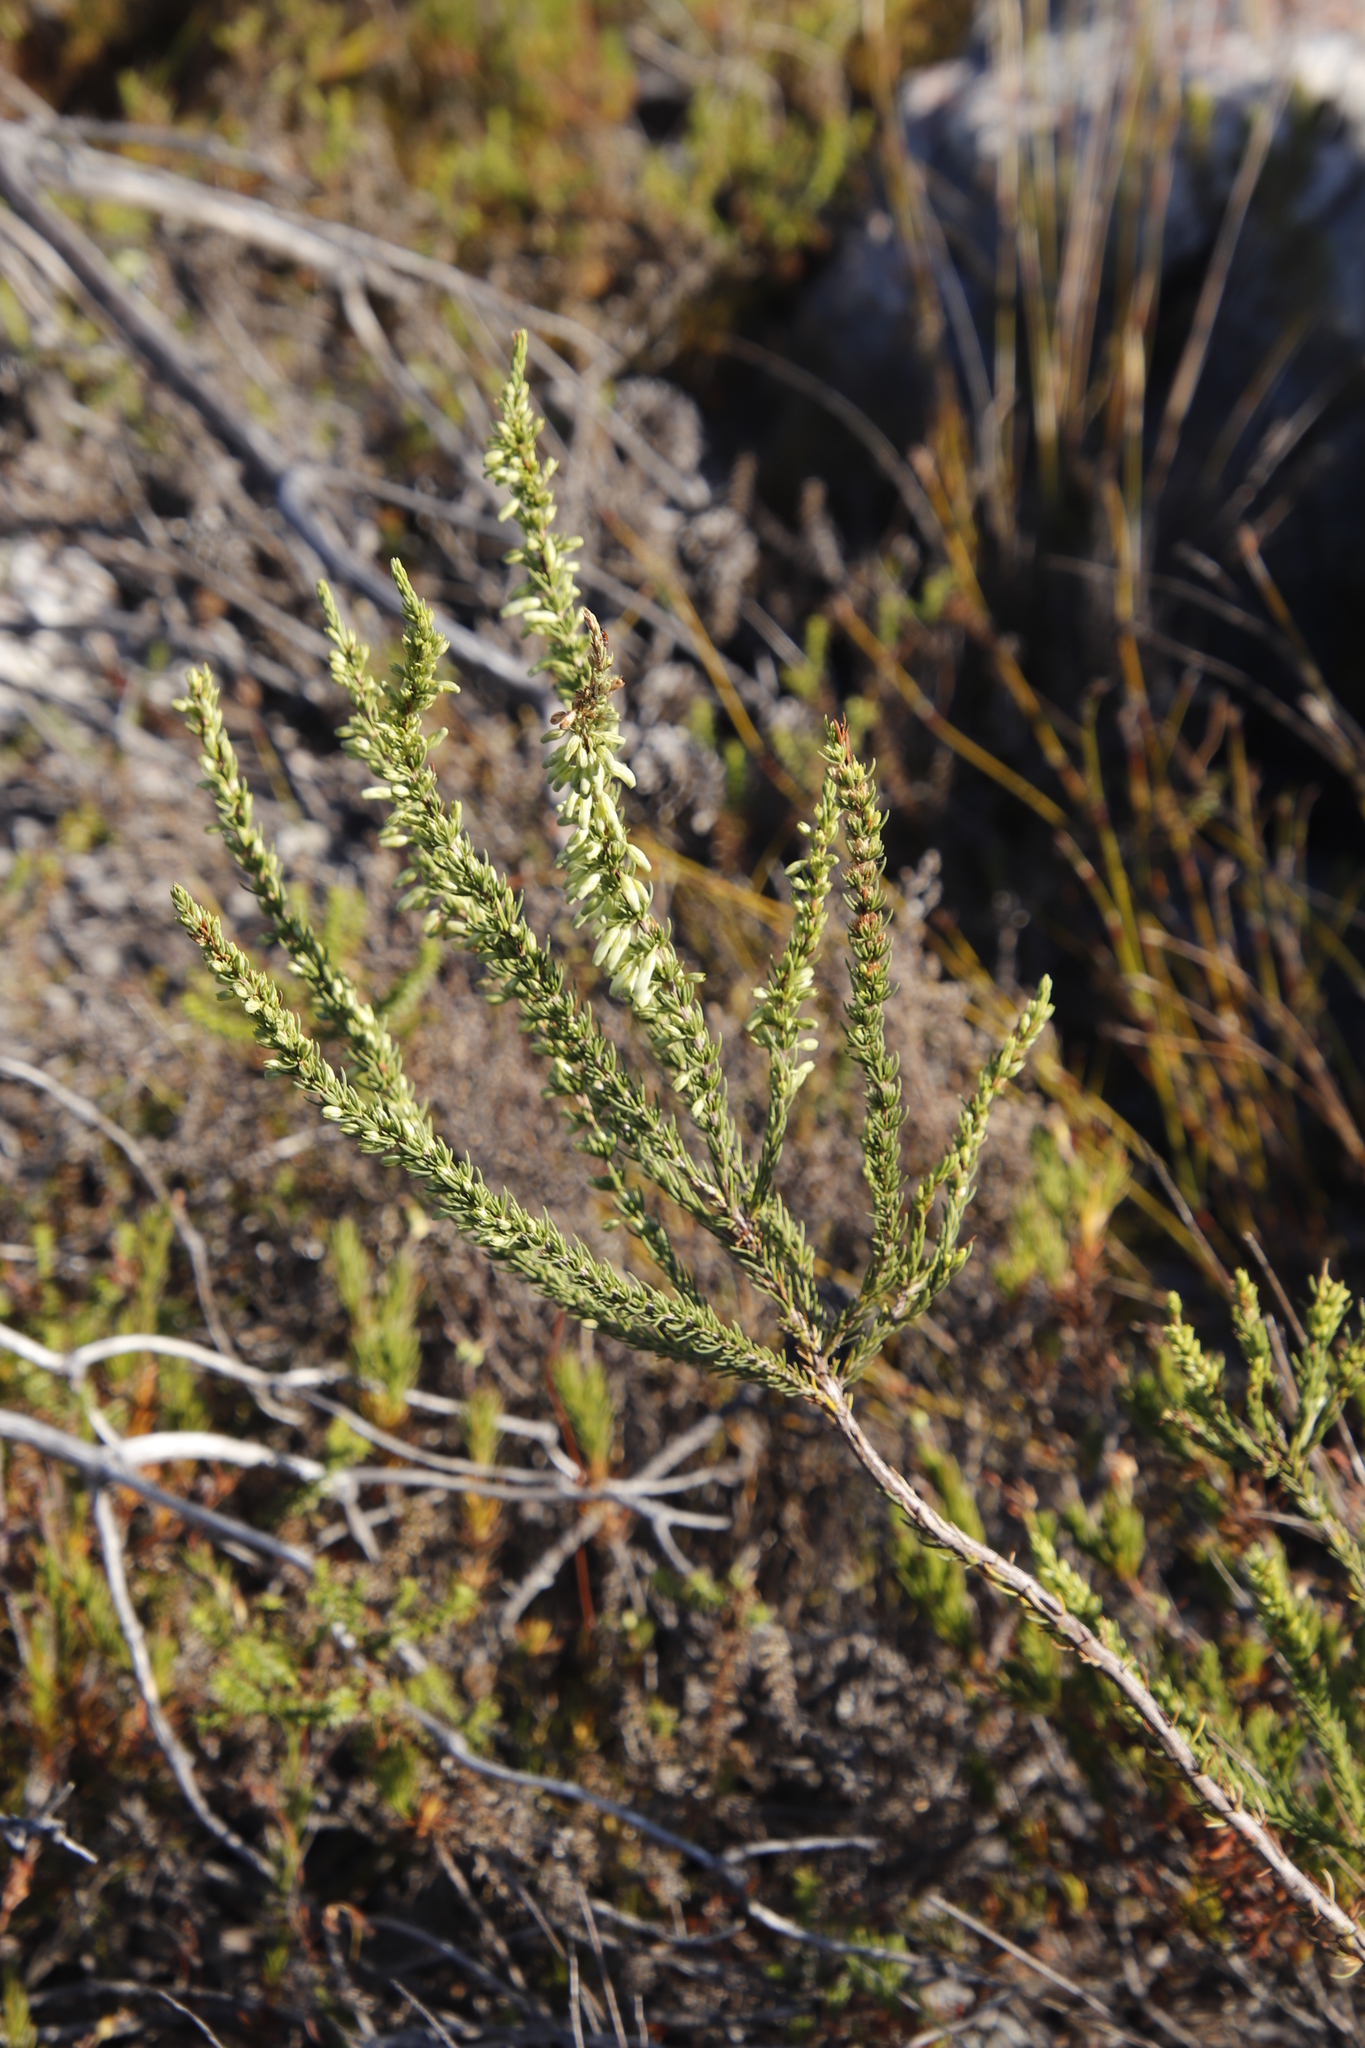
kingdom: Plantae
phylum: Tracheophyta
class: Magnoliopsida
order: Ericales
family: Ericaceae
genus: Erica
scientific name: Erica mammosa
